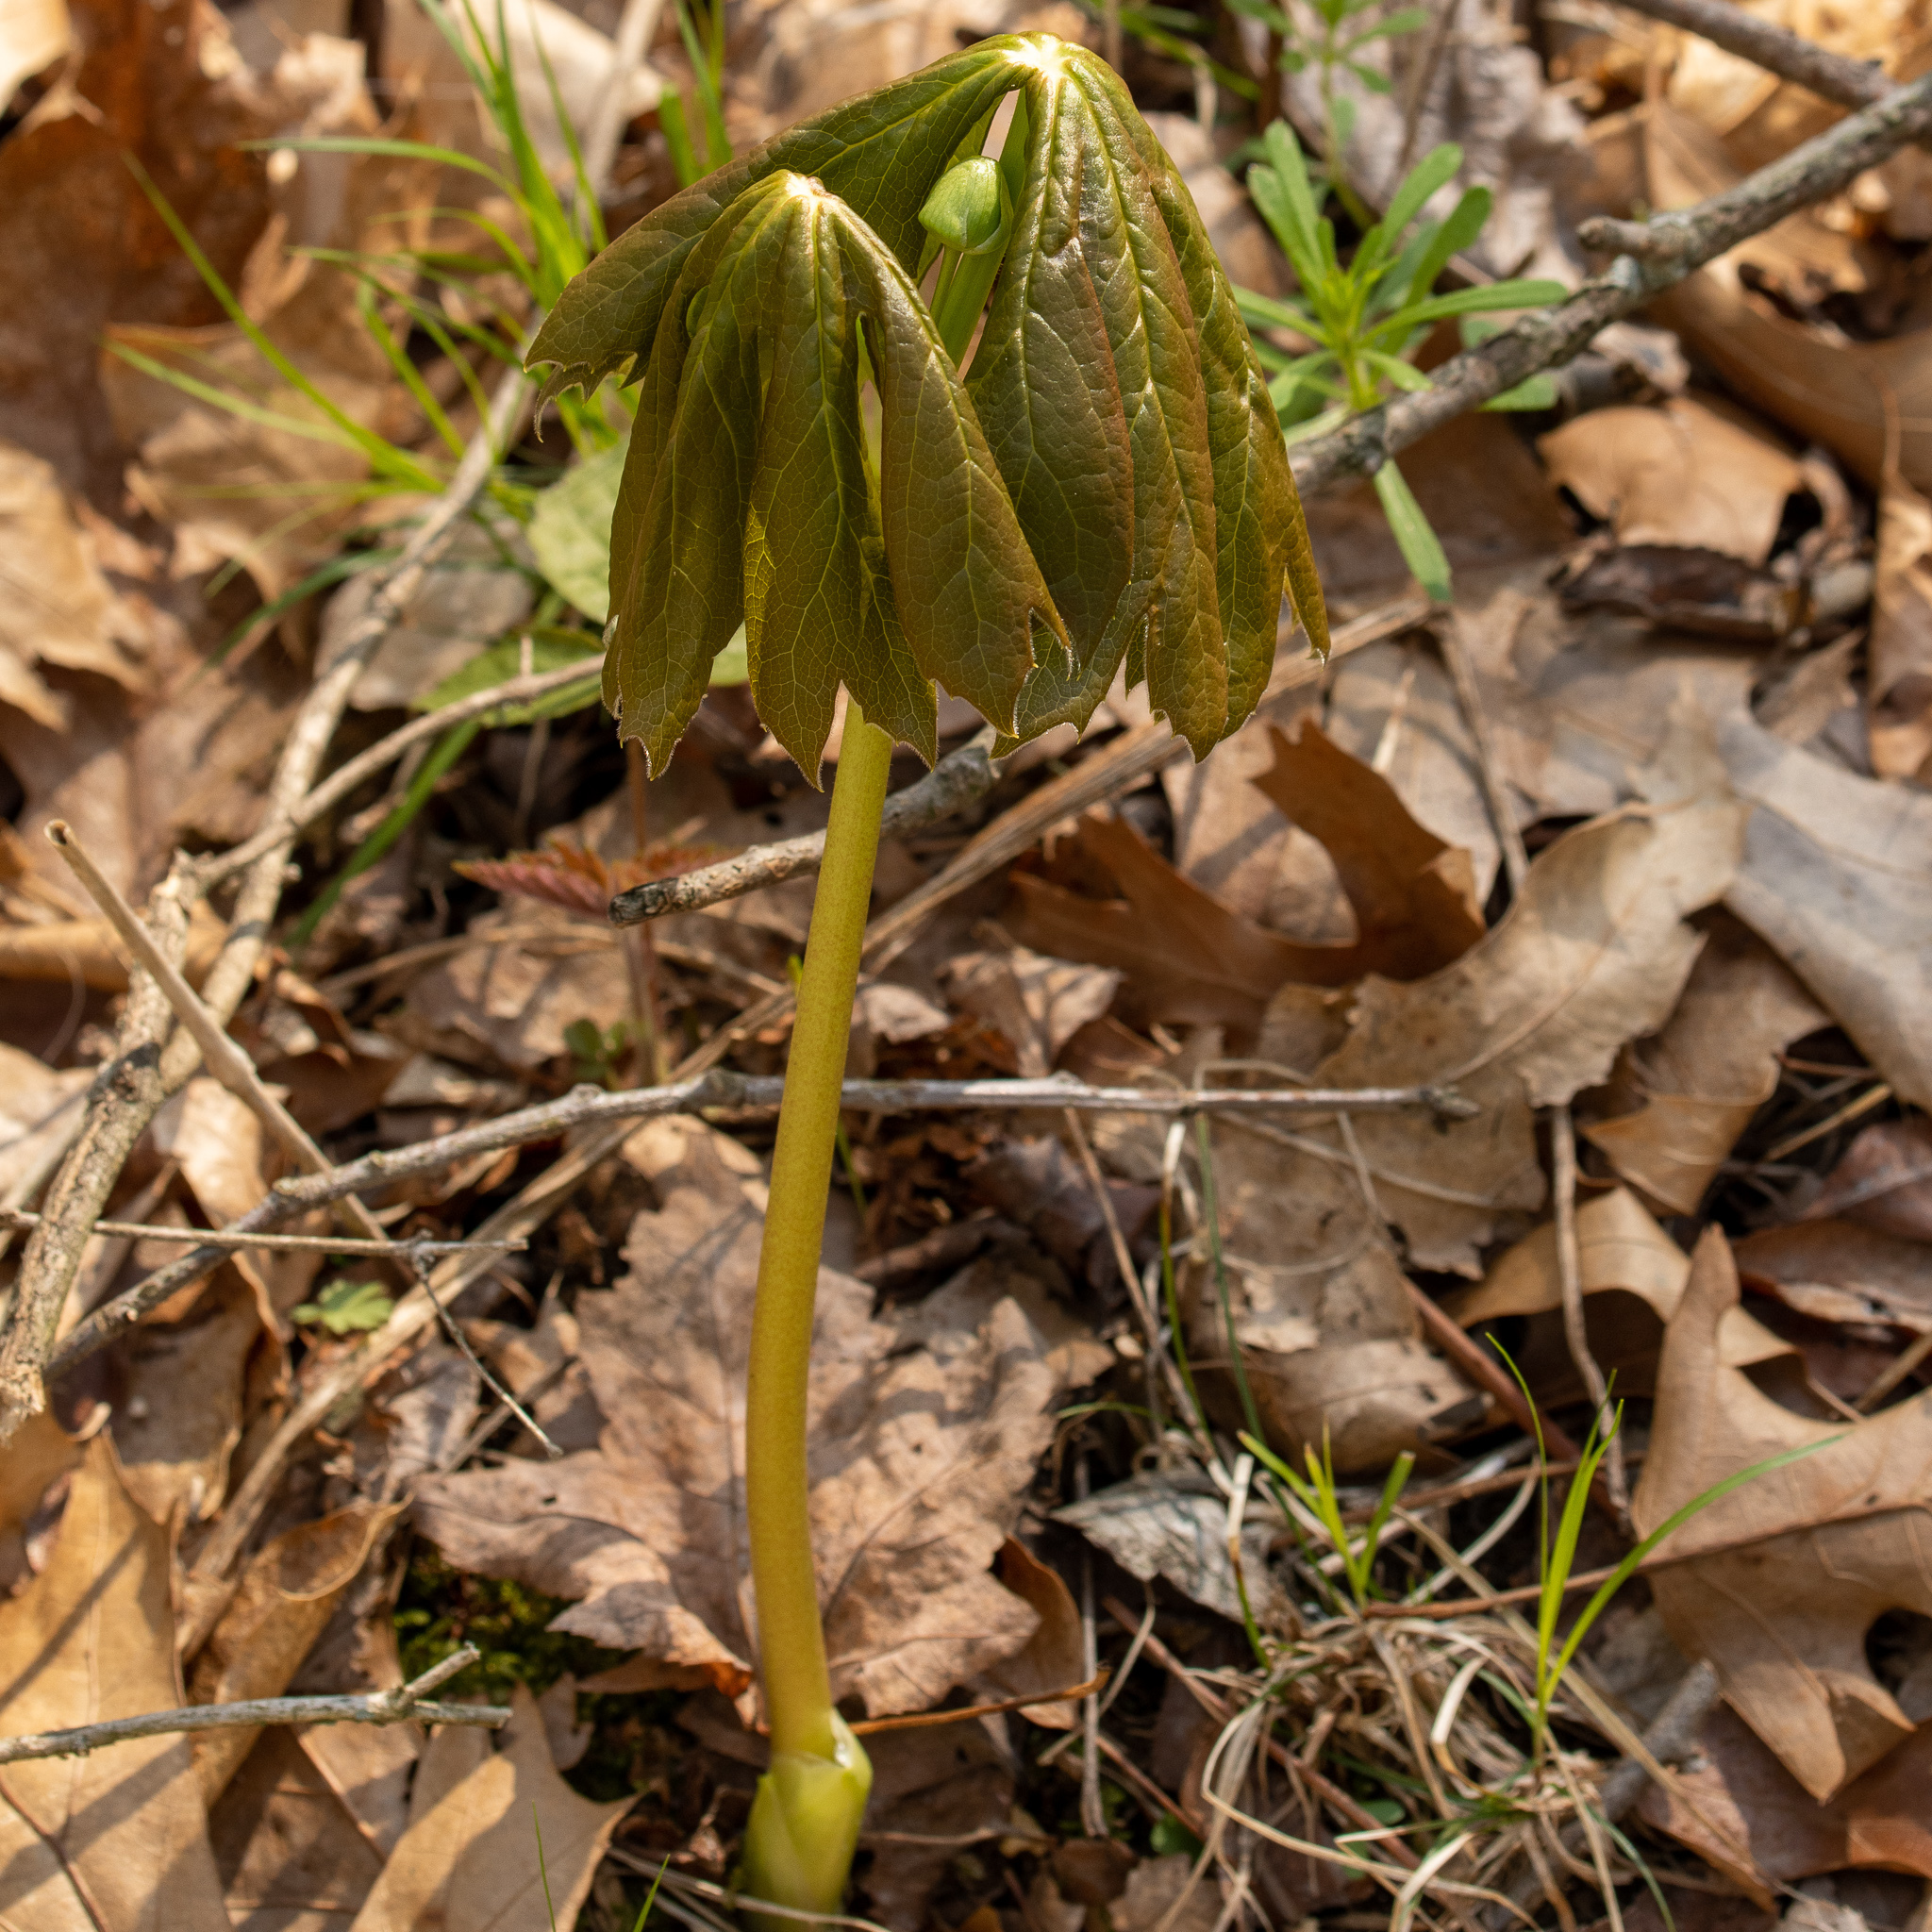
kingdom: Plantae
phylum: Tracheophyta
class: Magnoliopsida
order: Ranunculales
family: Berberidaceae
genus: Podophyllum
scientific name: Podophyllum peltatum
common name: Wild mandrake
